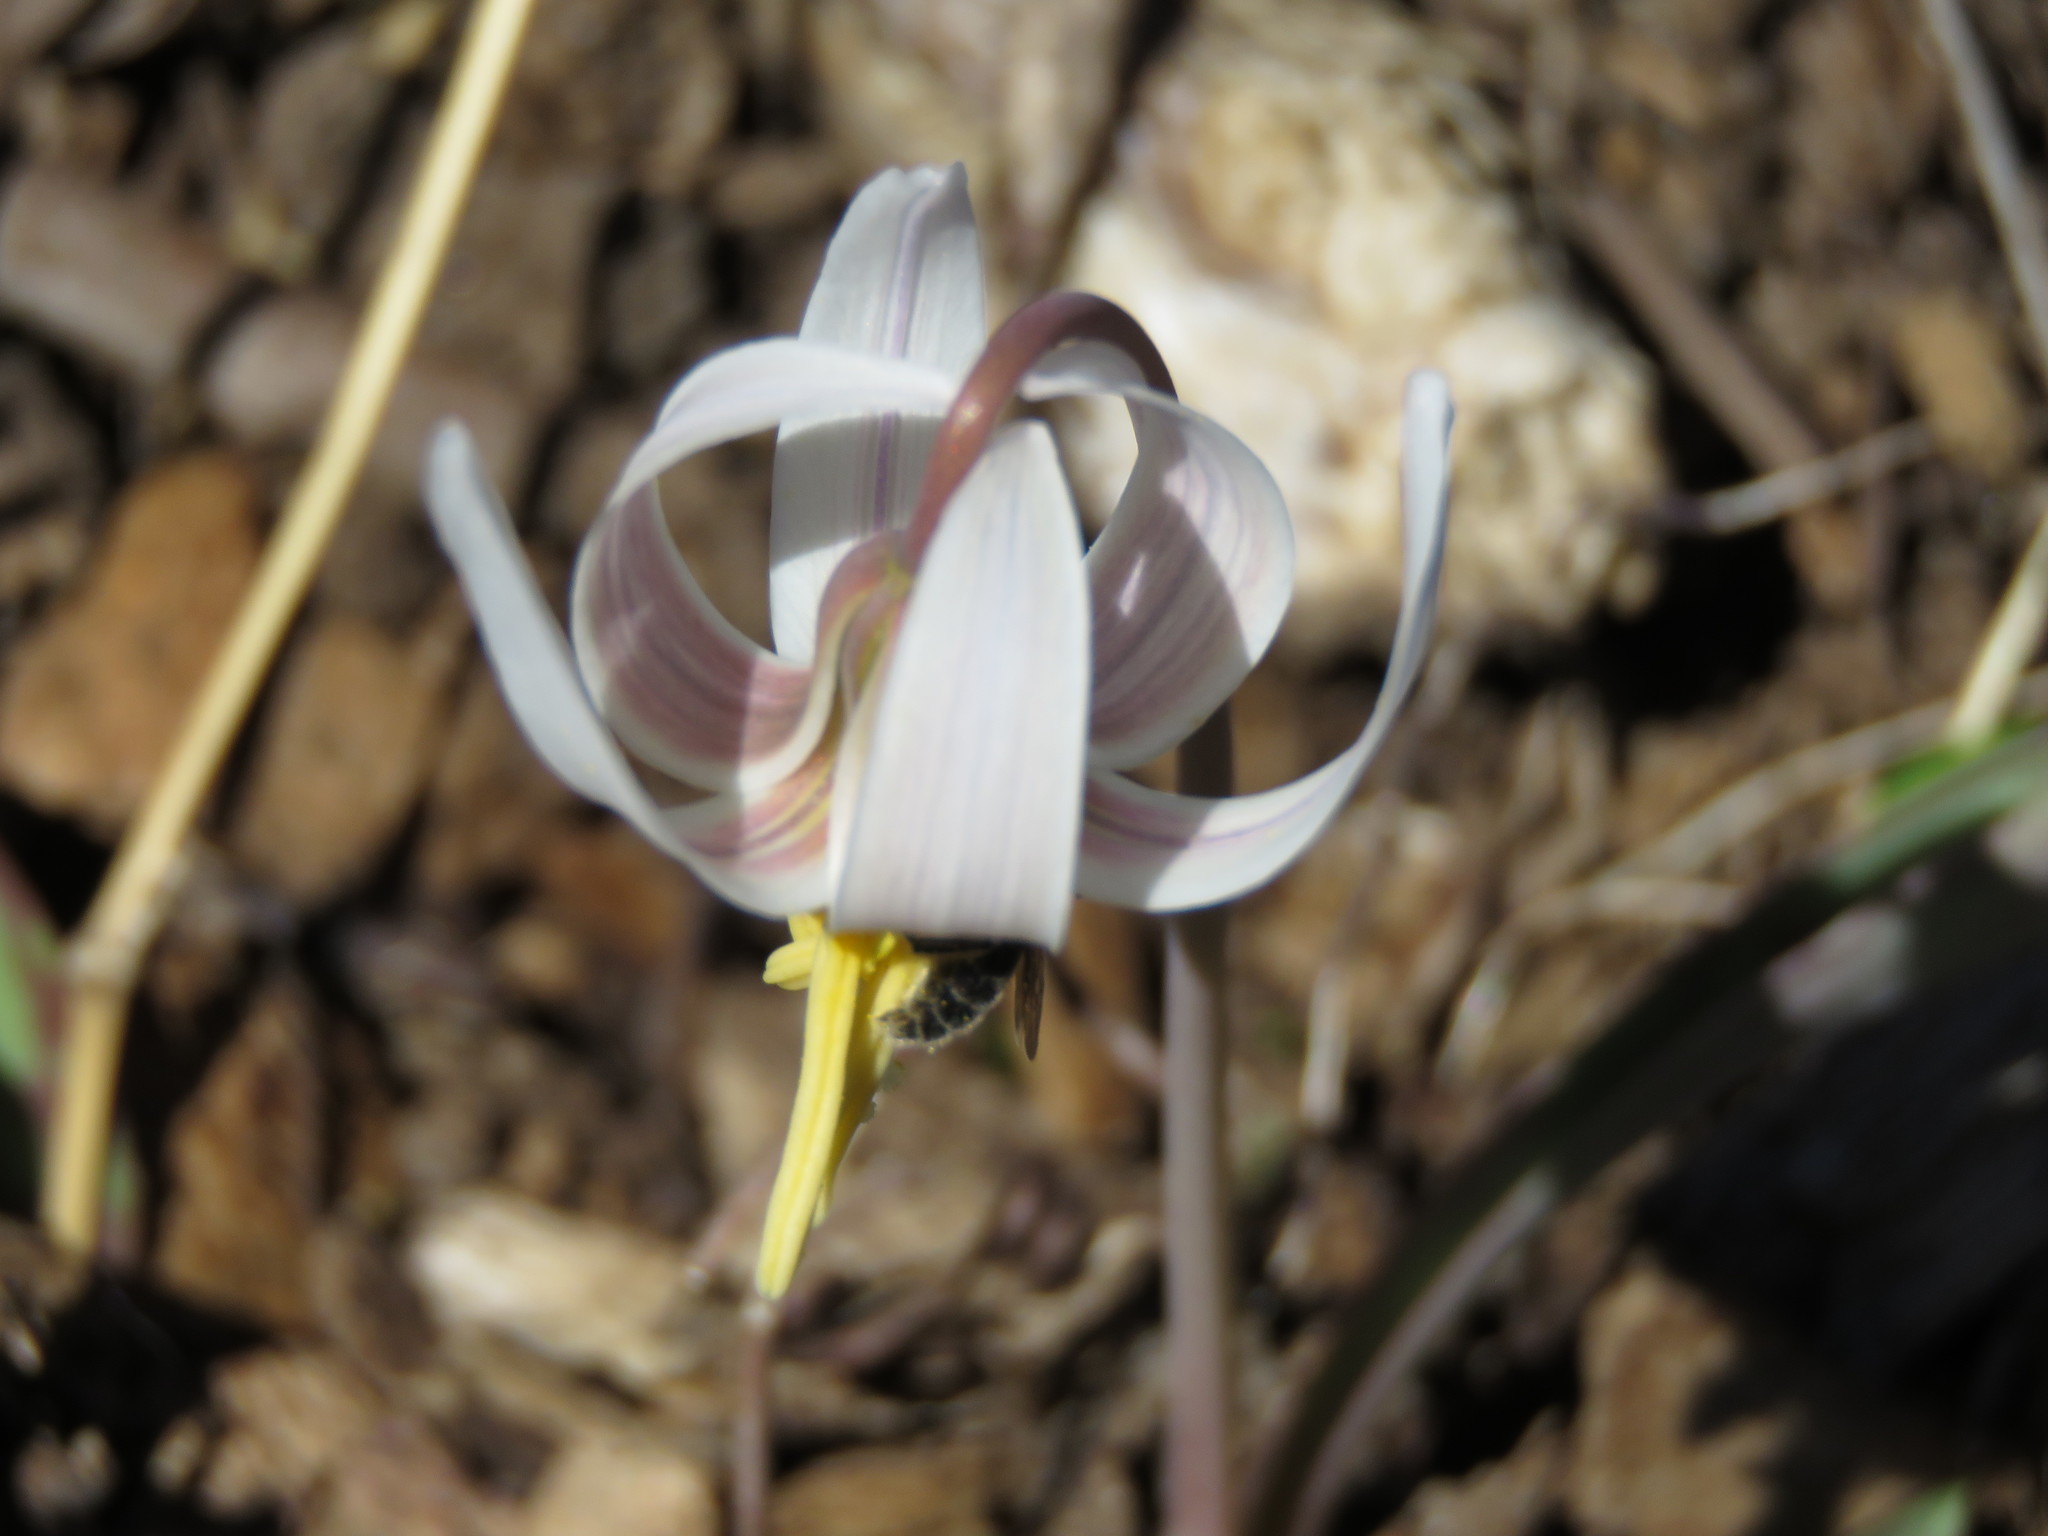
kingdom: Plantae
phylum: Tracheophyta
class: Liliopsida
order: Liliales
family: Liliaceae
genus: Erythronium
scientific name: Erythronium albidum
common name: White trout-lily
